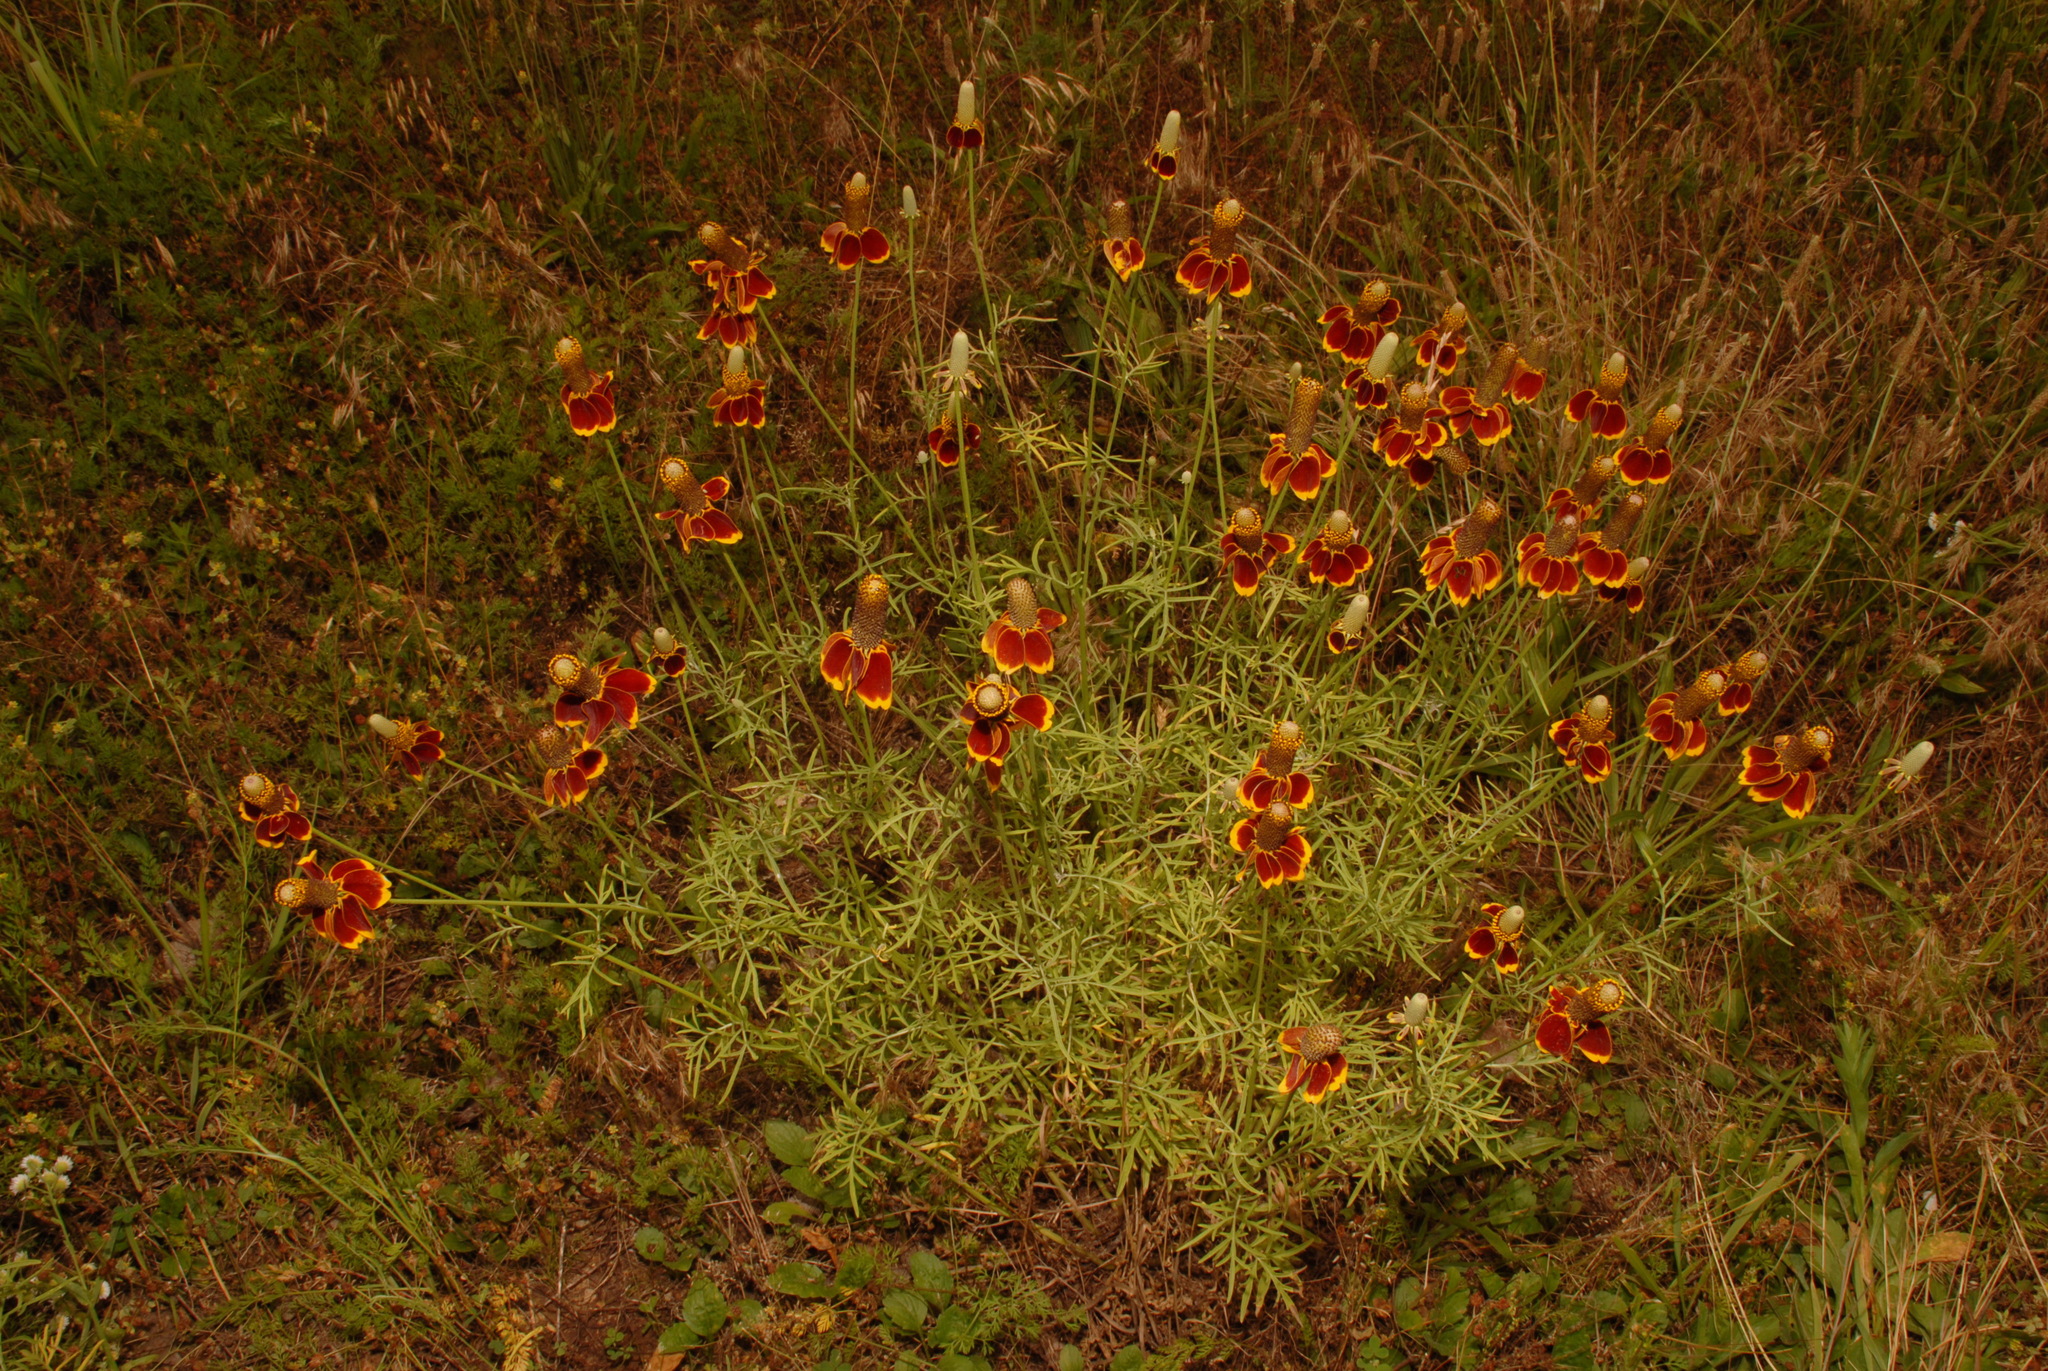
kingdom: Plantae
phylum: Tracheophyta
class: Magnoliopsida
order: Asterales
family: Asteraceae
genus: Ratibida
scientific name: Ratibida columnifera
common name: Prairie coneflower
